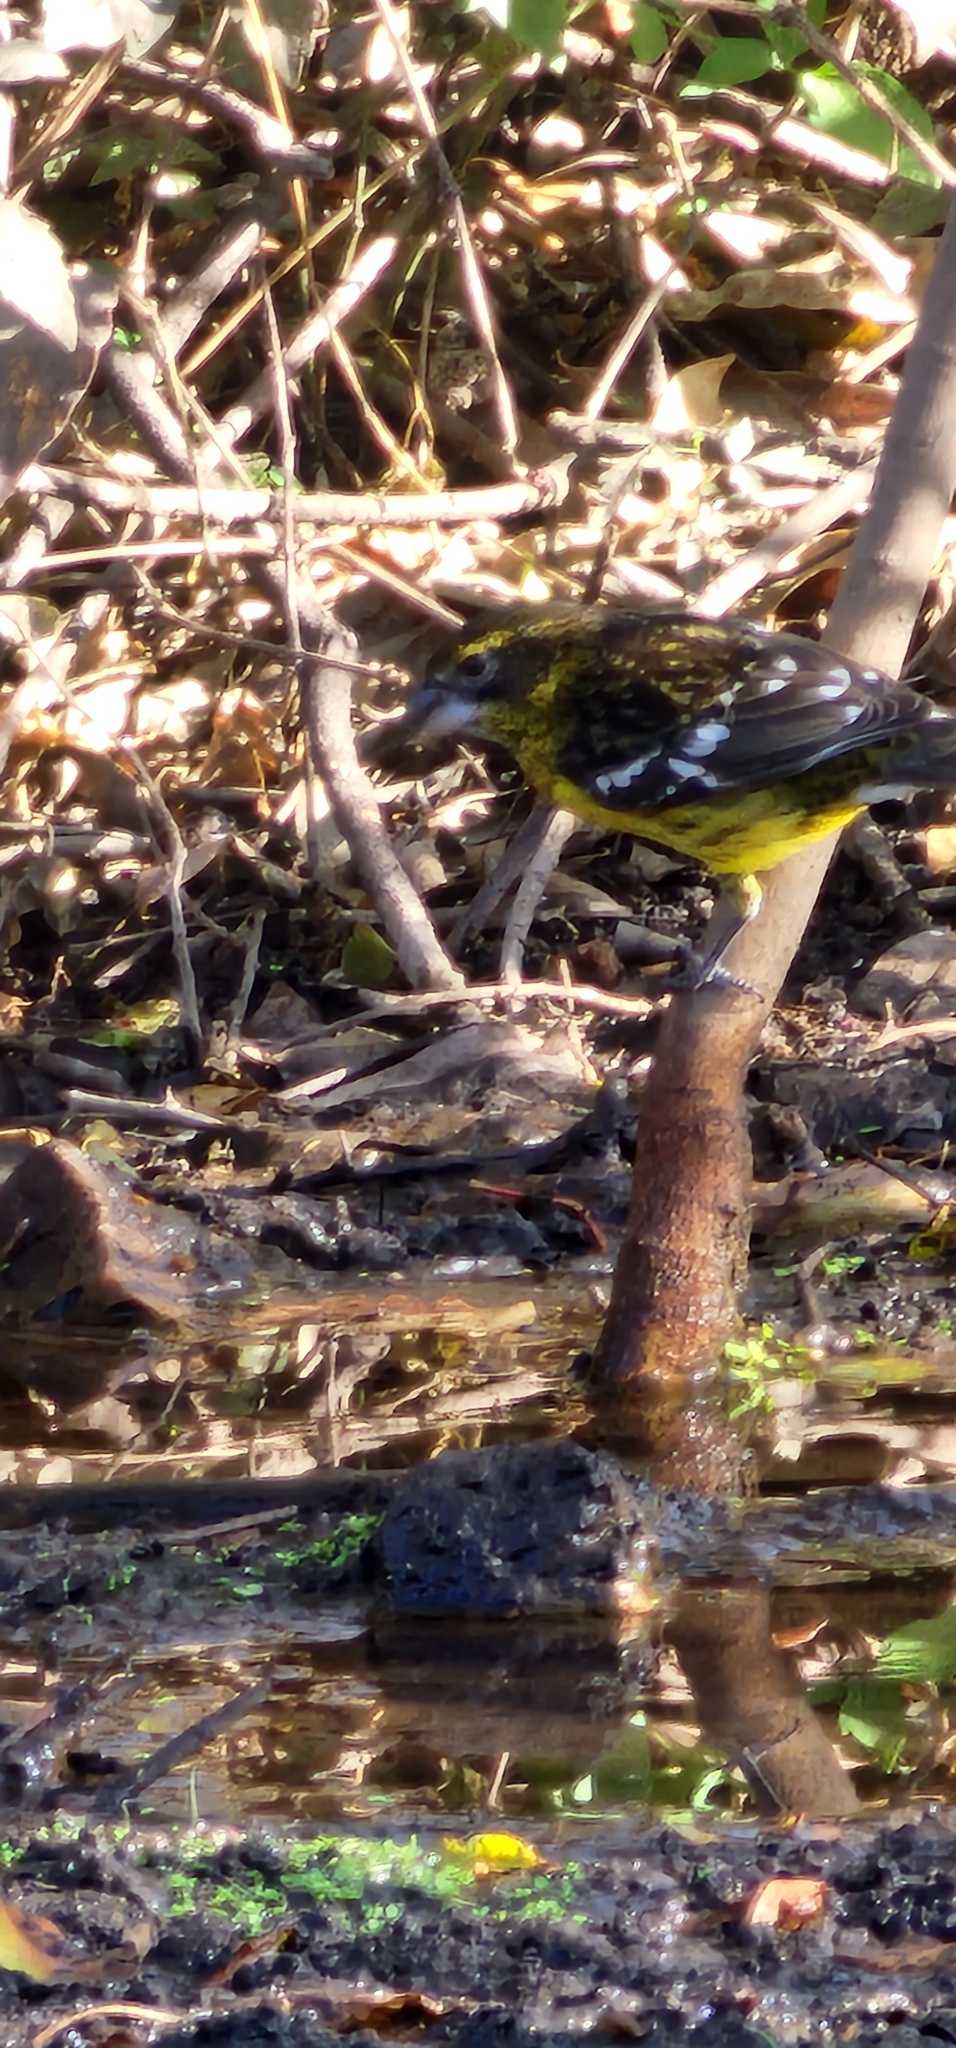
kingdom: Animalia
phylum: Chordata
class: Aves
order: Passeriformes
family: Cardinalidae
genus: Pheucticus
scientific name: Pheucticus aureoventris
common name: Black-backed grosbeak
